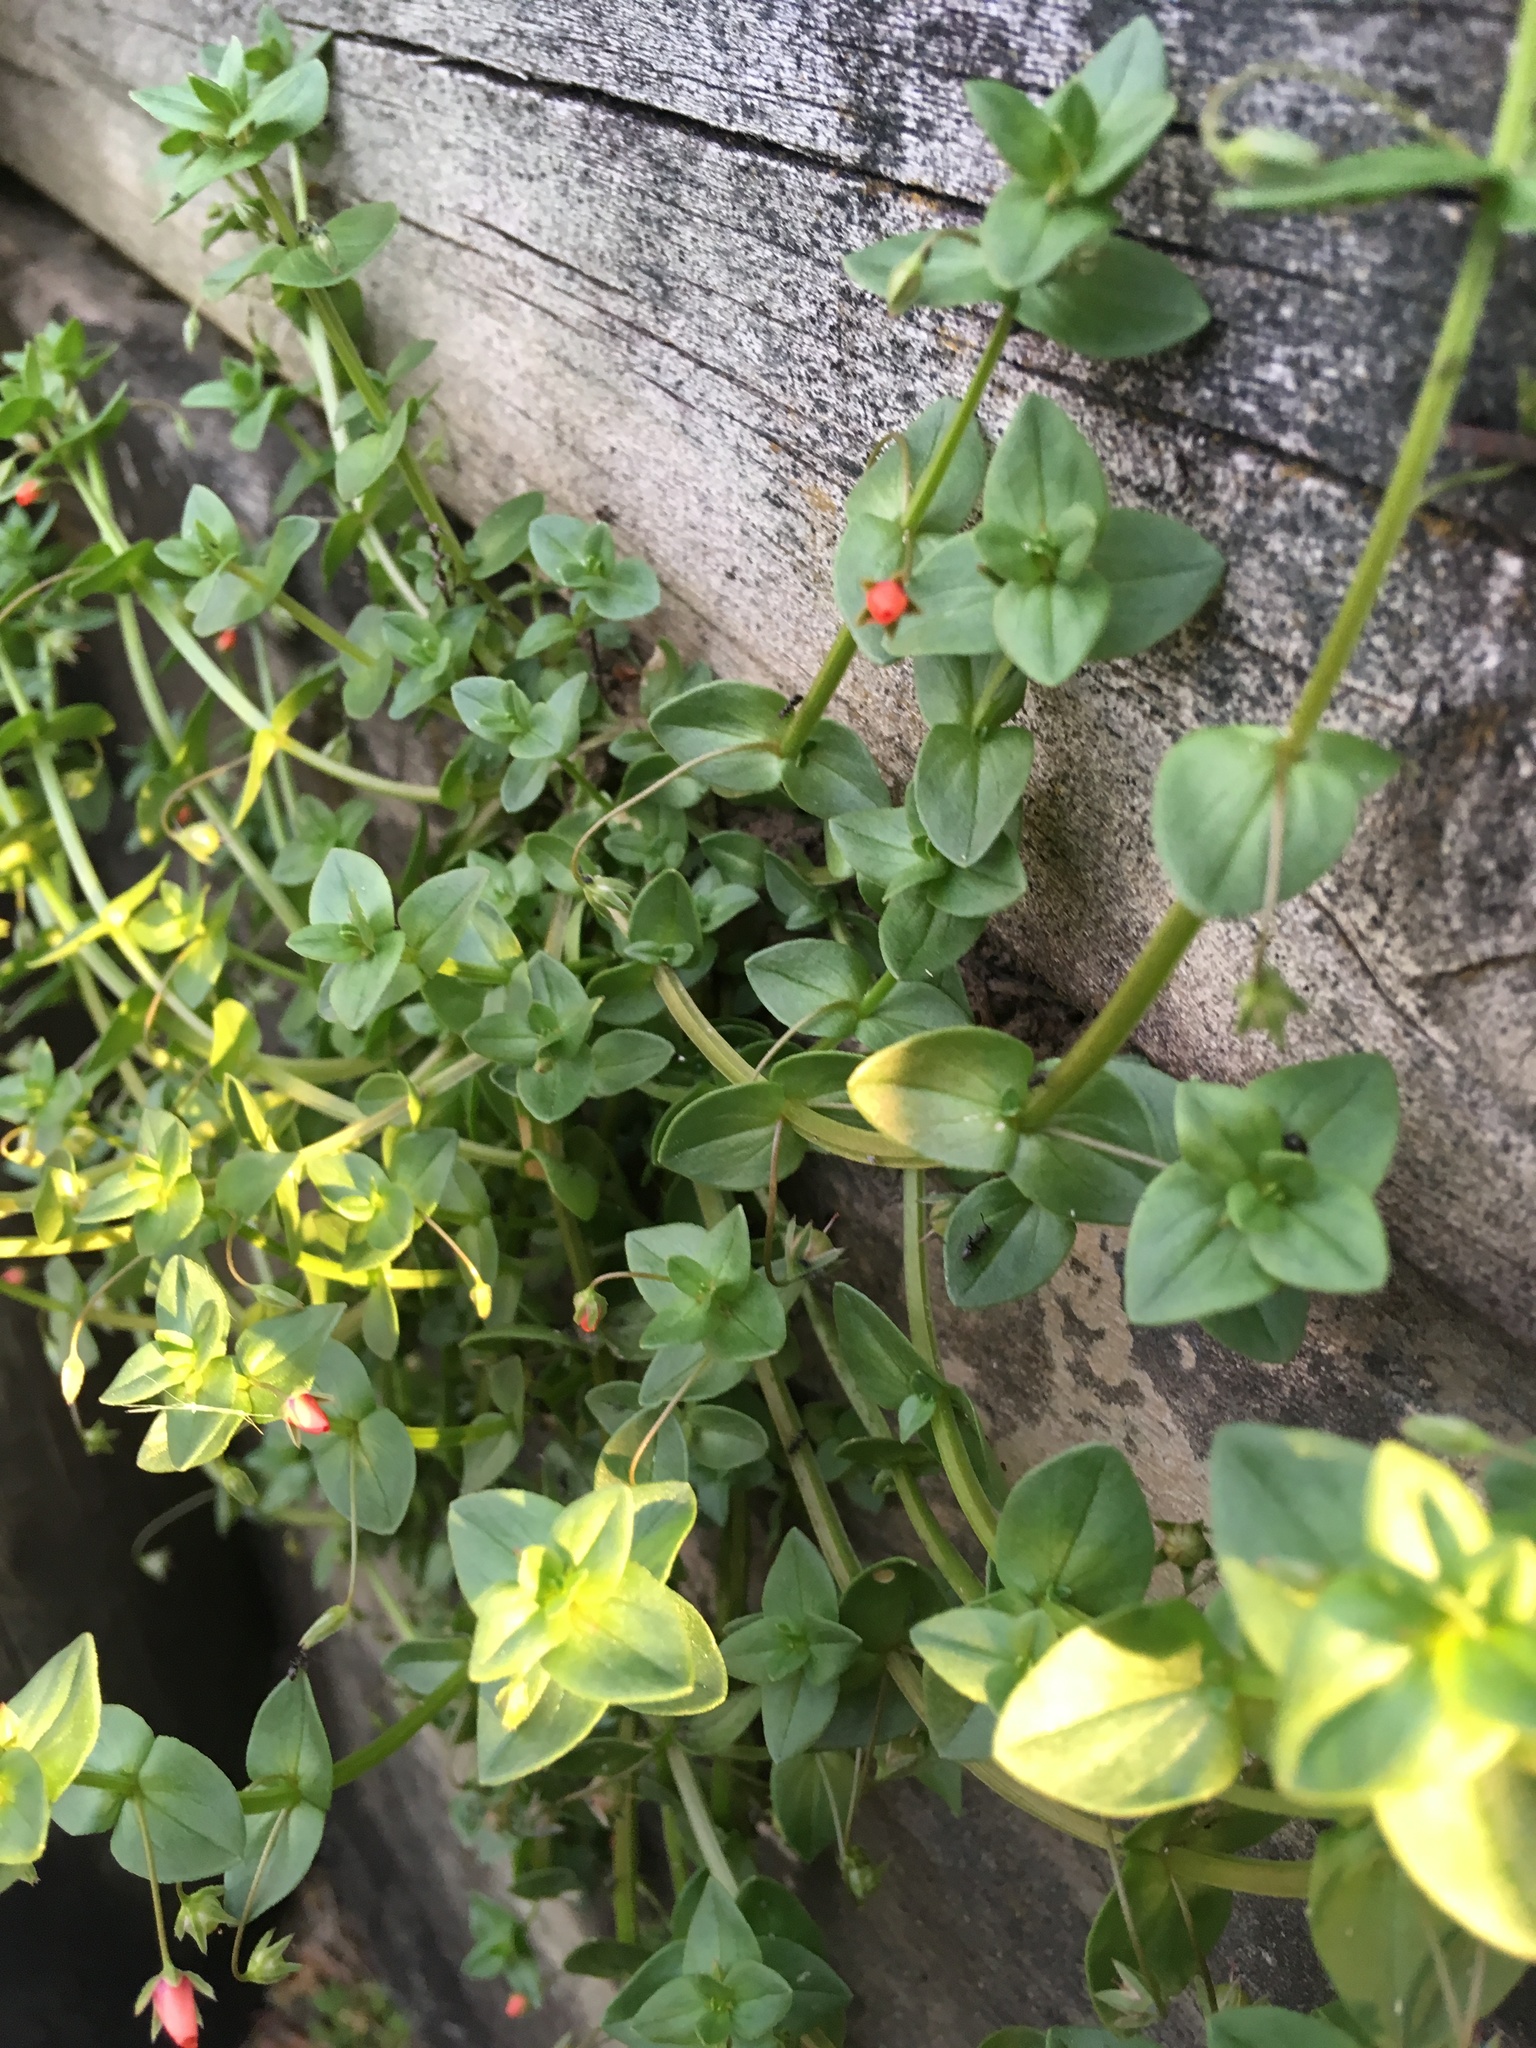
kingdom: Plantae
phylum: Tracheophyta
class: Magnoliopsida
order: Ericales
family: Primulaceae
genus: Lysimachia
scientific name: Lysimachia arvensis
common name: Scarlet pimpernel
